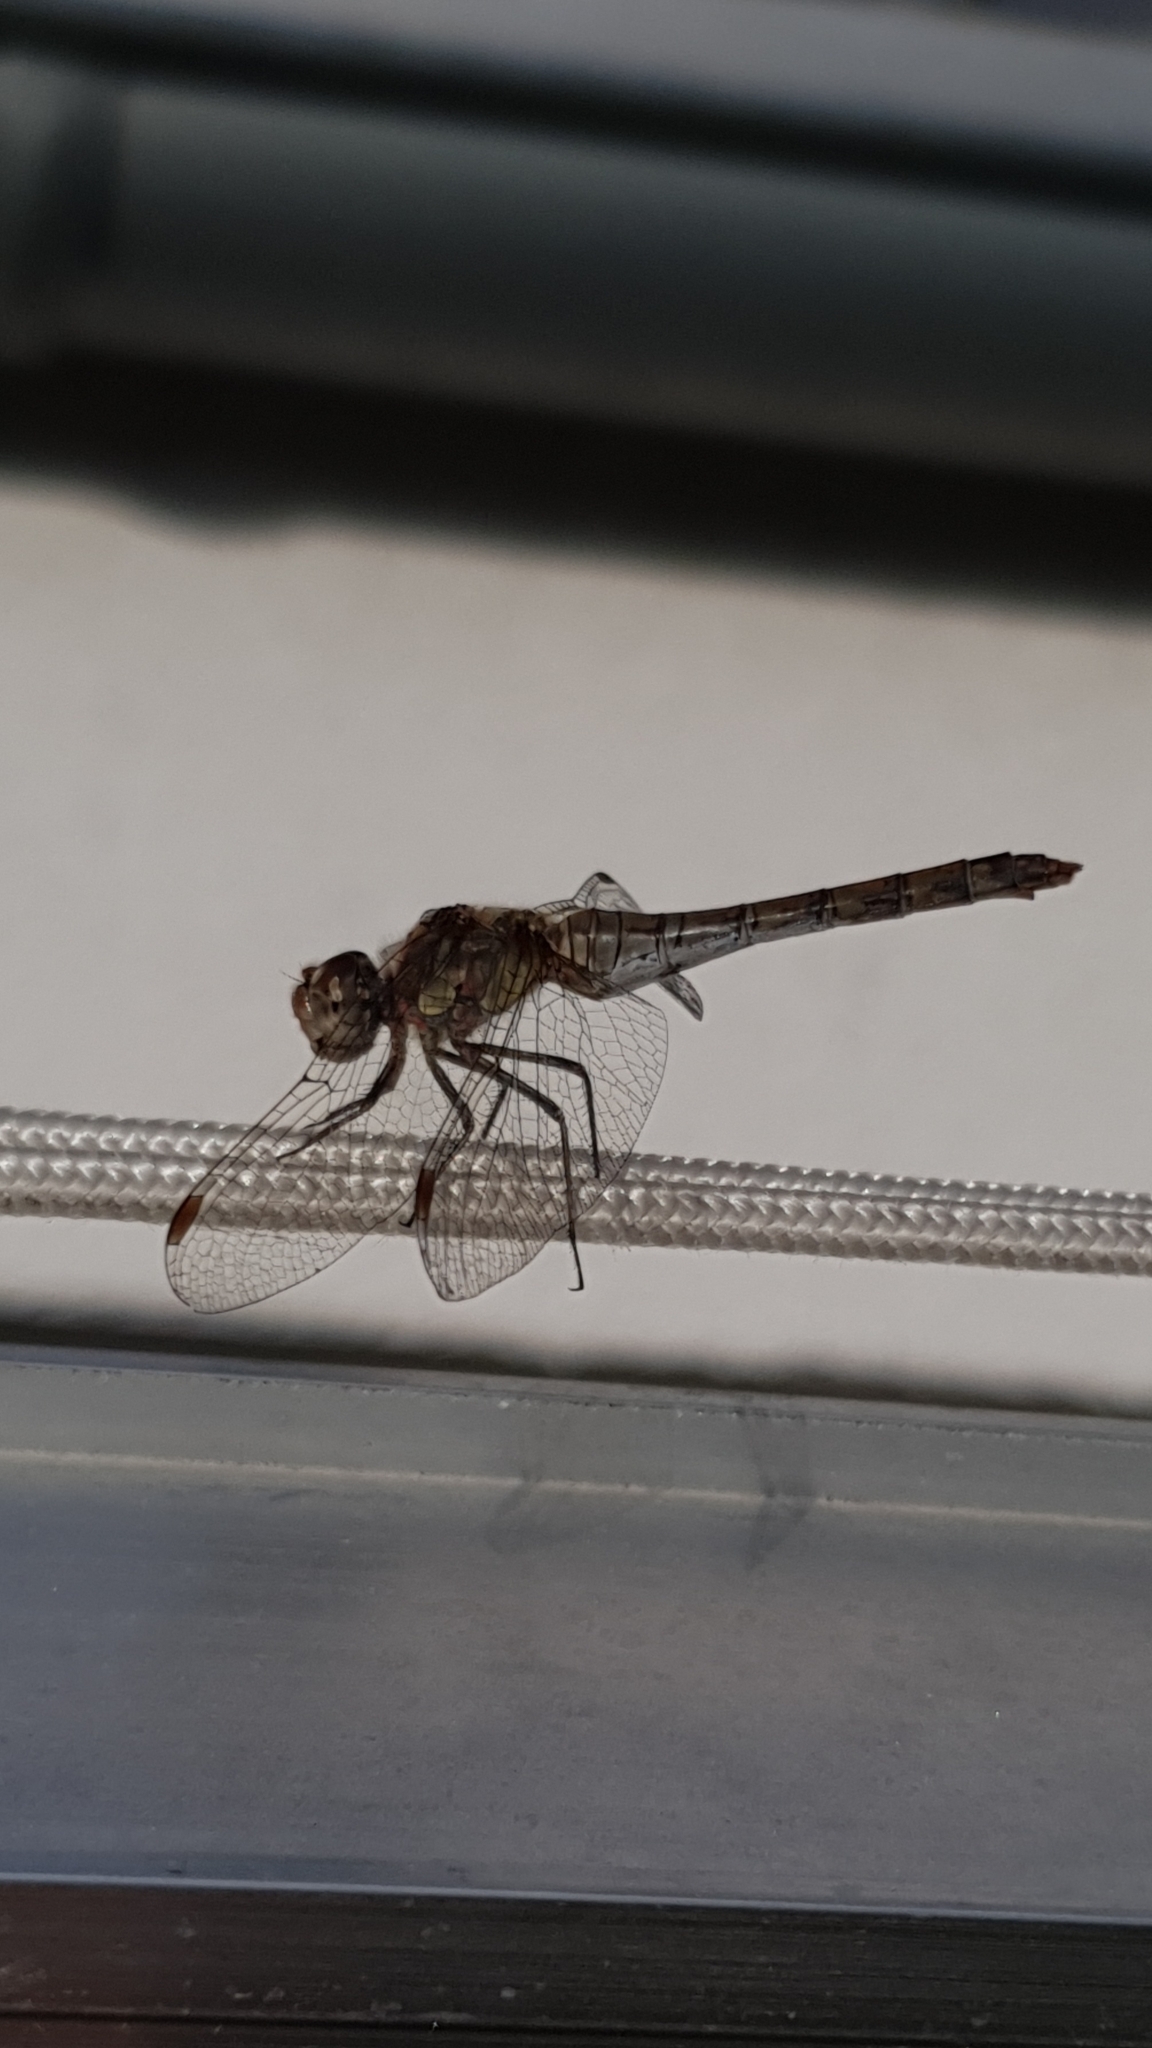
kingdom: Animalia
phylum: Arthropoda
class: Insecta
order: Odonata
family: Libellulidae
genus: Sympetrum
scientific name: Sympetrum striolatum
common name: Common darter
